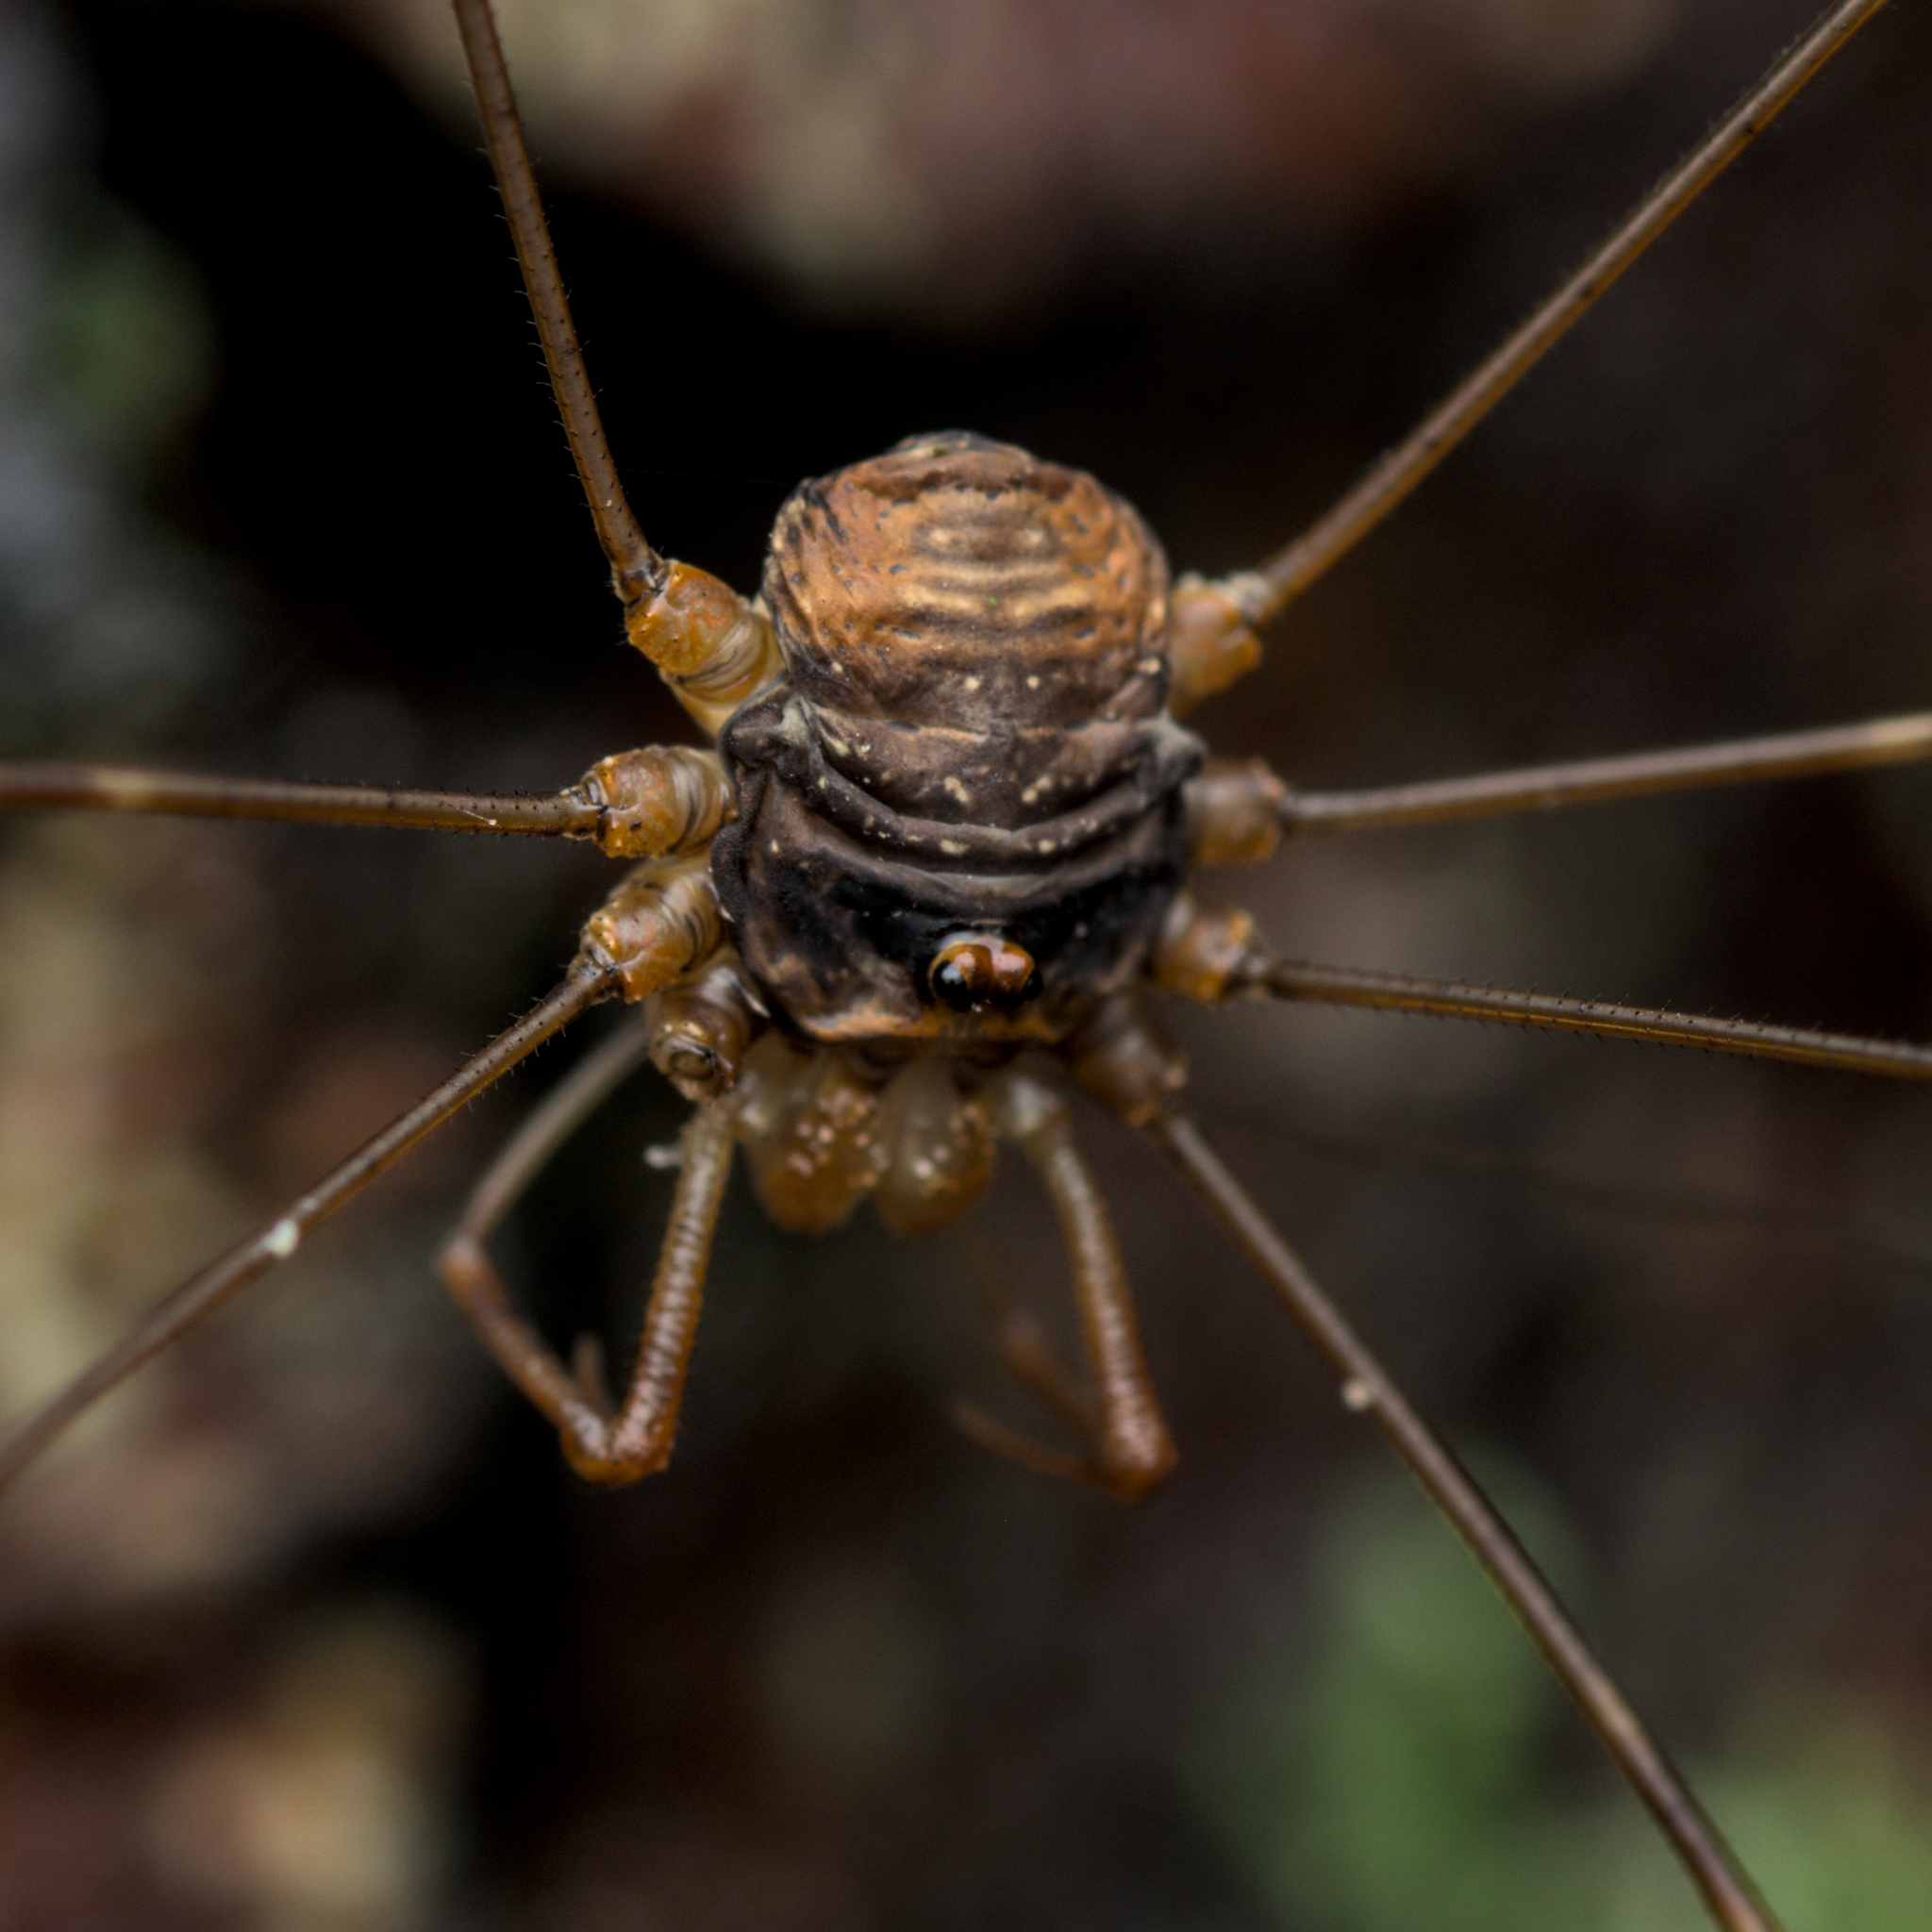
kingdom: Animalia
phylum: Arthropoda
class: Arachnida
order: Opiliones
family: Phalangiidae
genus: Dicranopalpus
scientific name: Dicranopalpus ramosus
